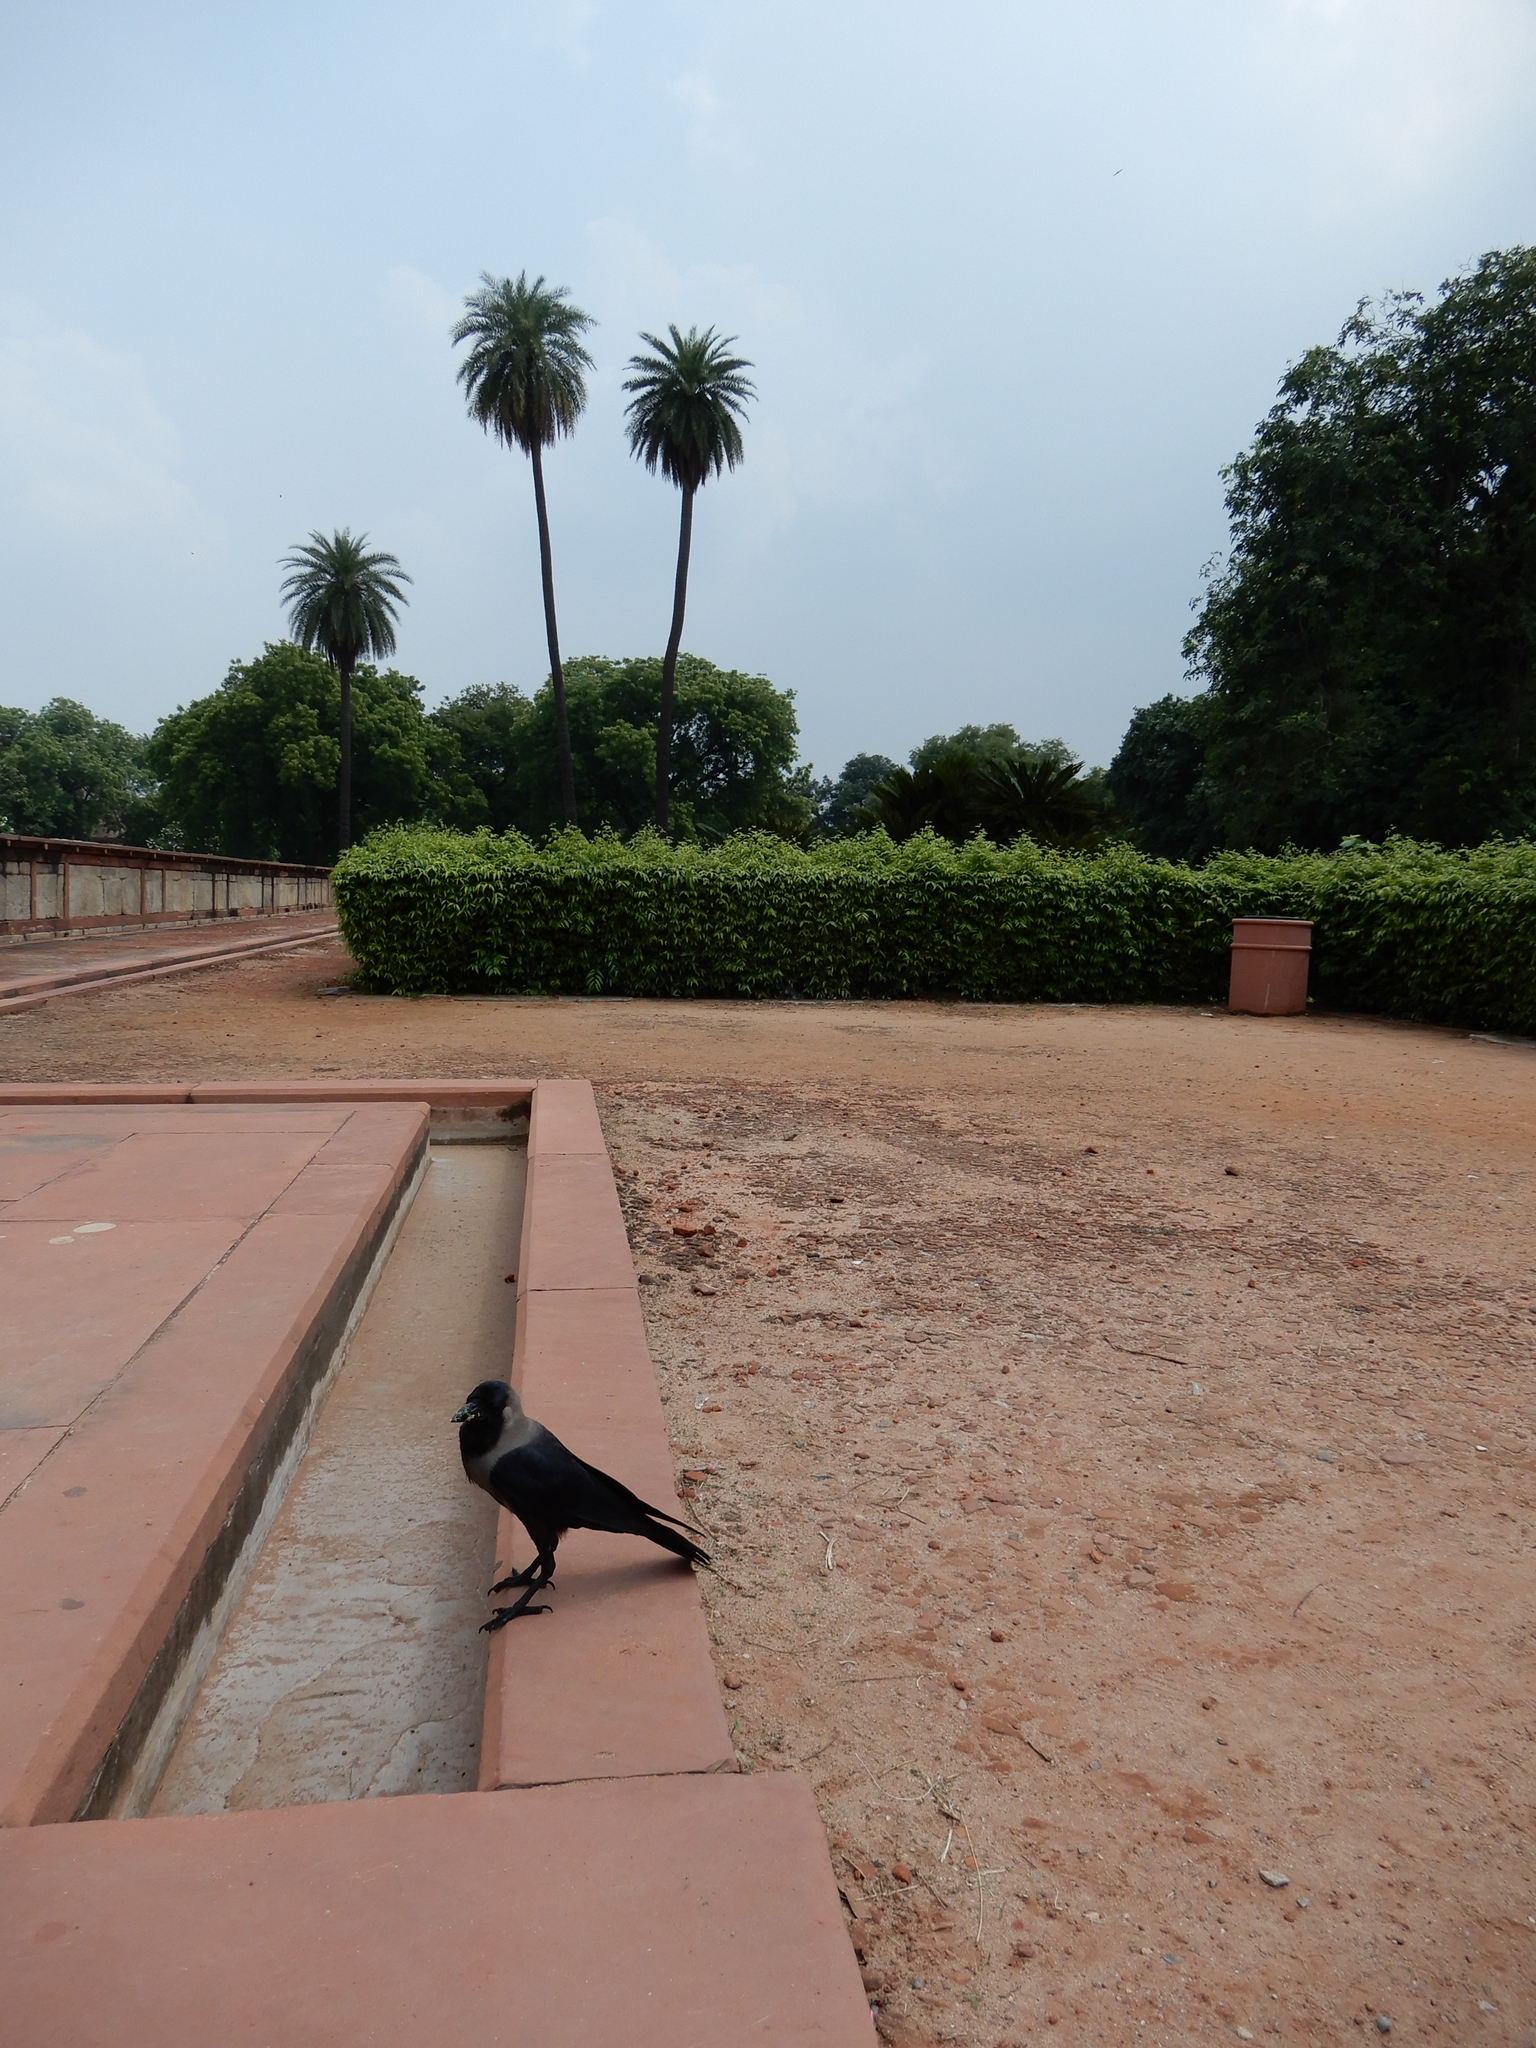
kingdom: Animalia
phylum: Chordata
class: Aves
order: Passeriformes
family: Corvidae
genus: Corvus
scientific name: Corvus splendens
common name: House crow
